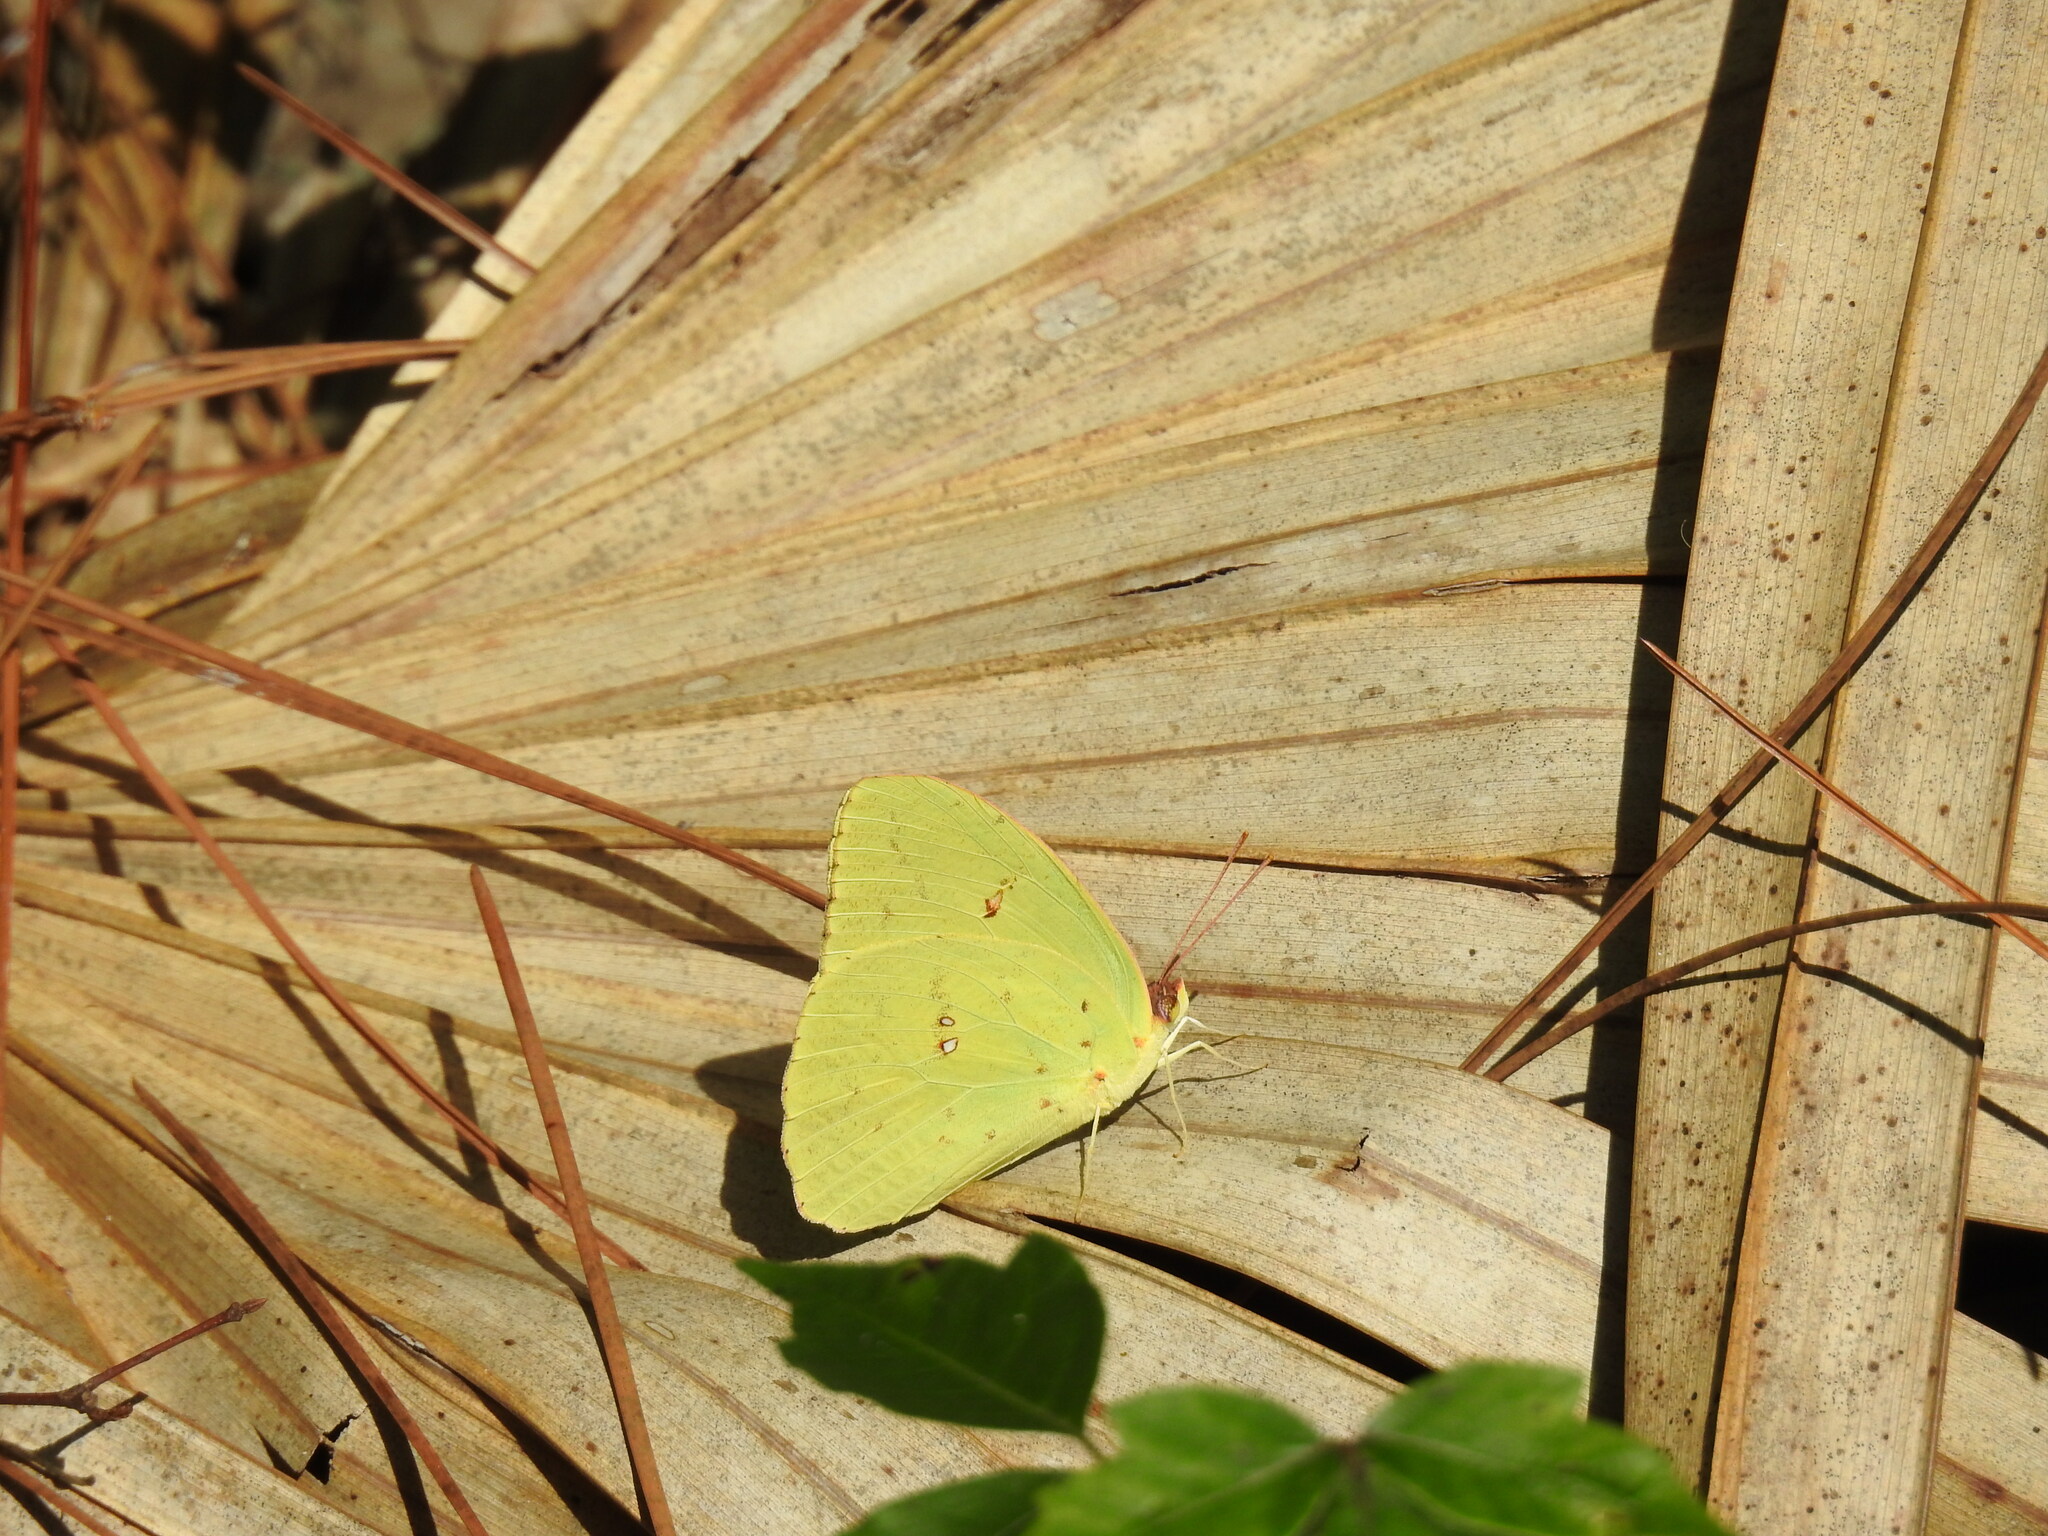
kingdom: Animalia
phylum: Arthropoda
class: Insecta
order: Lepidoptera
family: Pieridae
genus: Phoebis
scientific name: Phoebis sennae
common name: Cloudless sulphur
